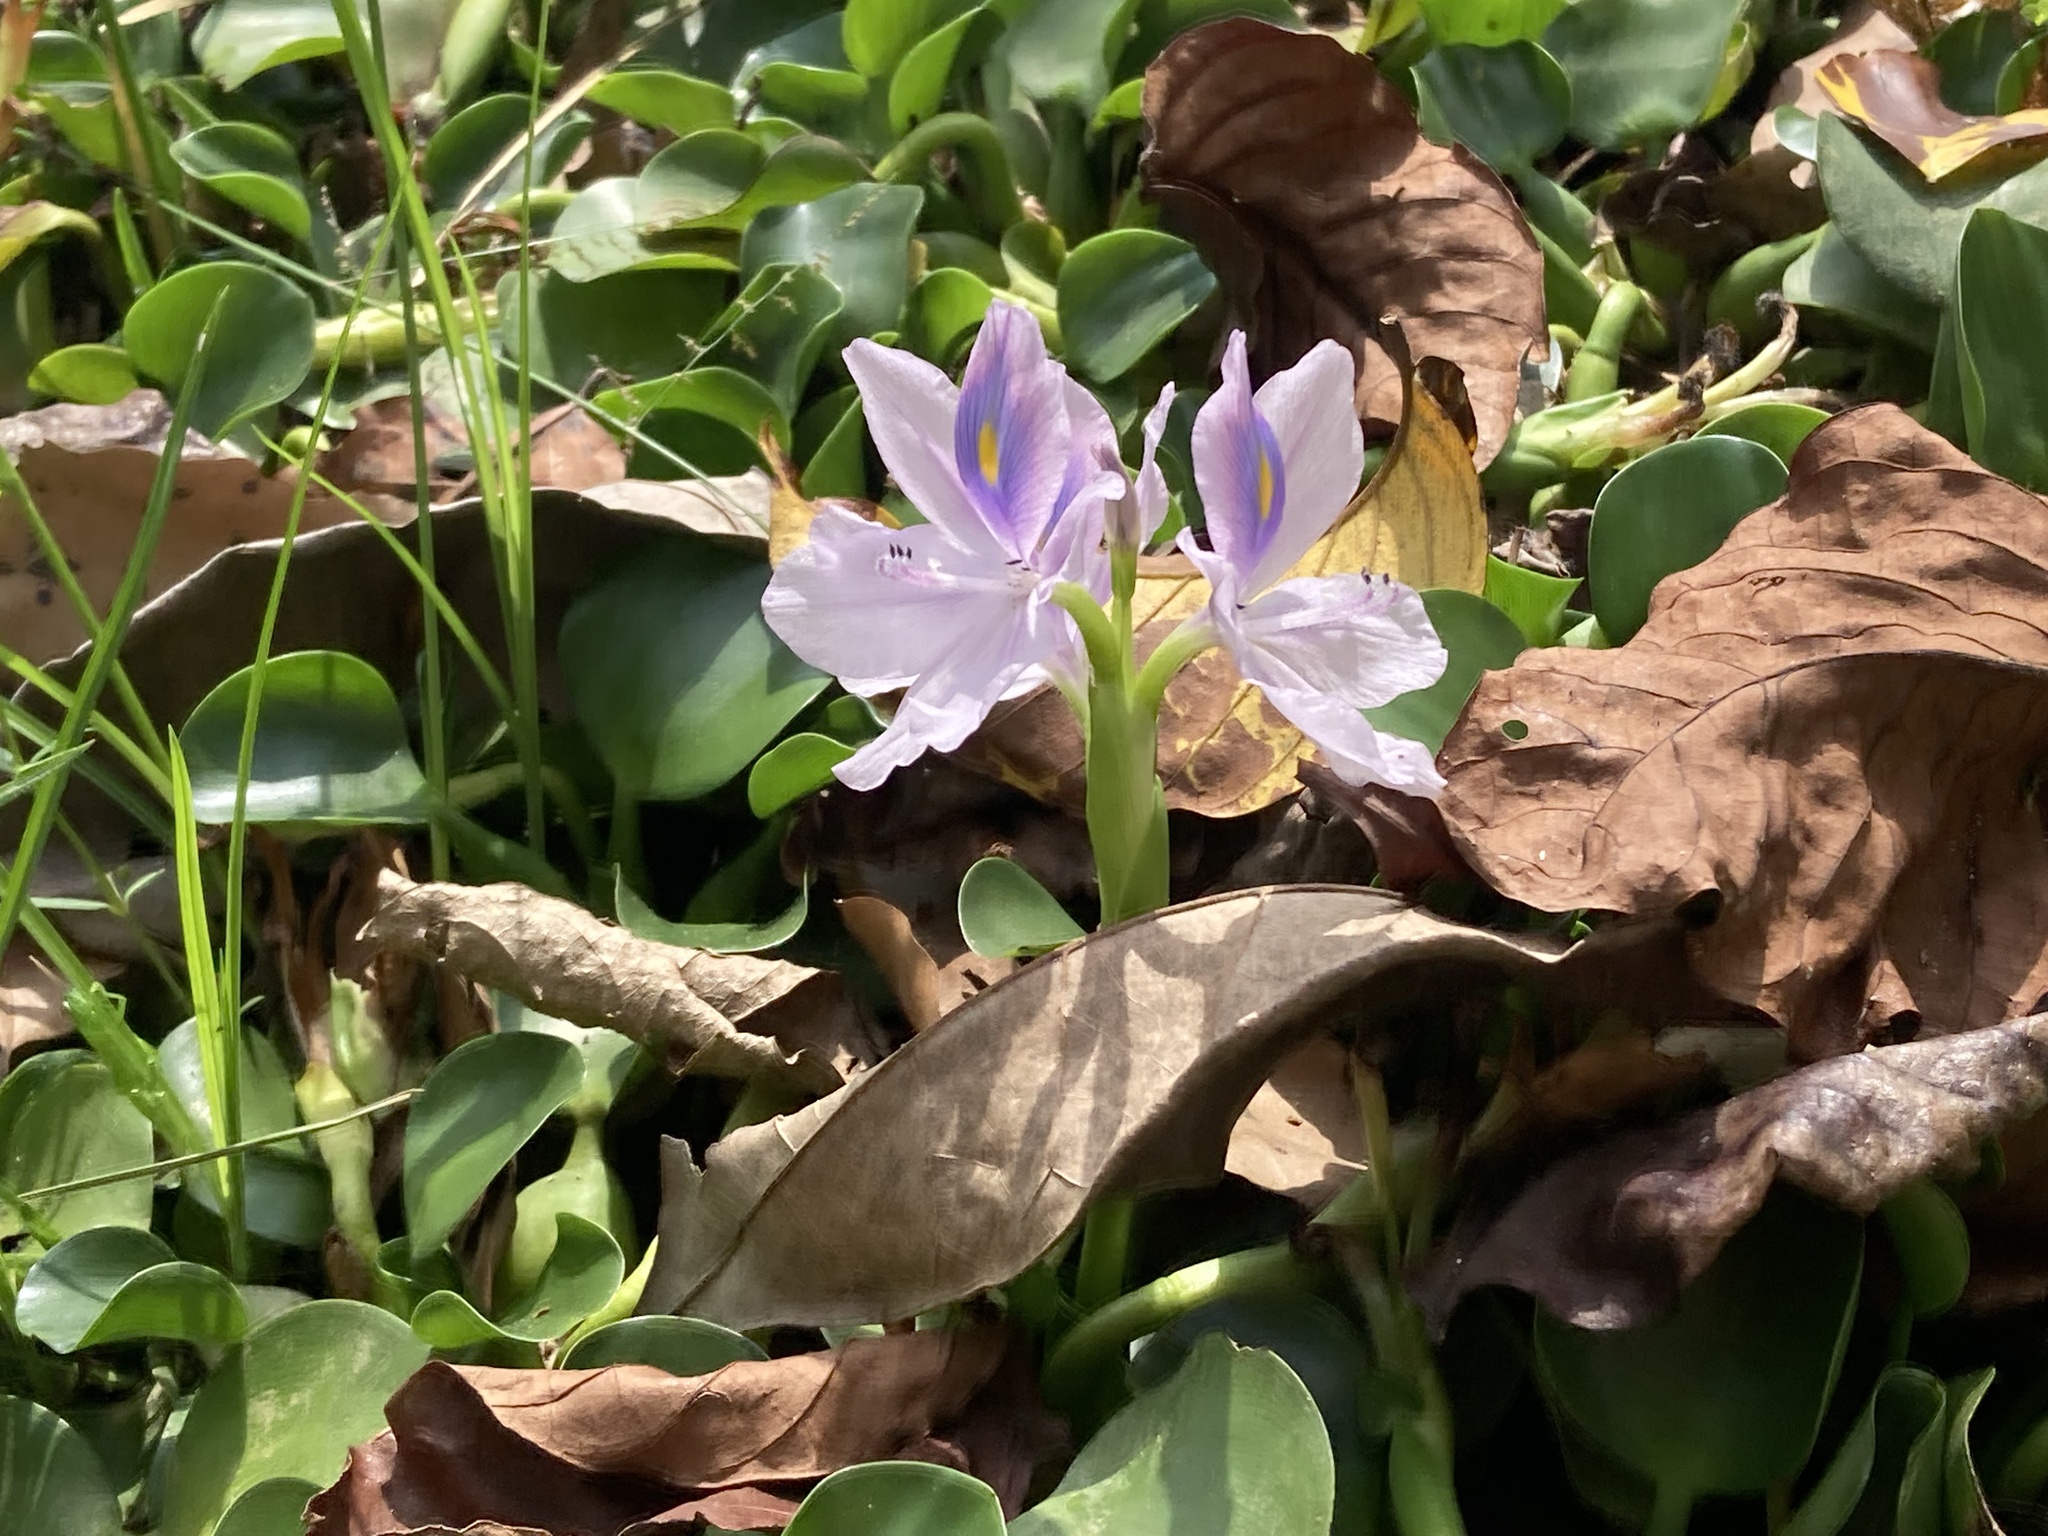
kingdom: Plantae
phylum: Tracheophyta
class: Liliopsida
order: Commelinales
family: Pontederiaceae
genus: Pontederia
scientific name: Pontederia crassipes
